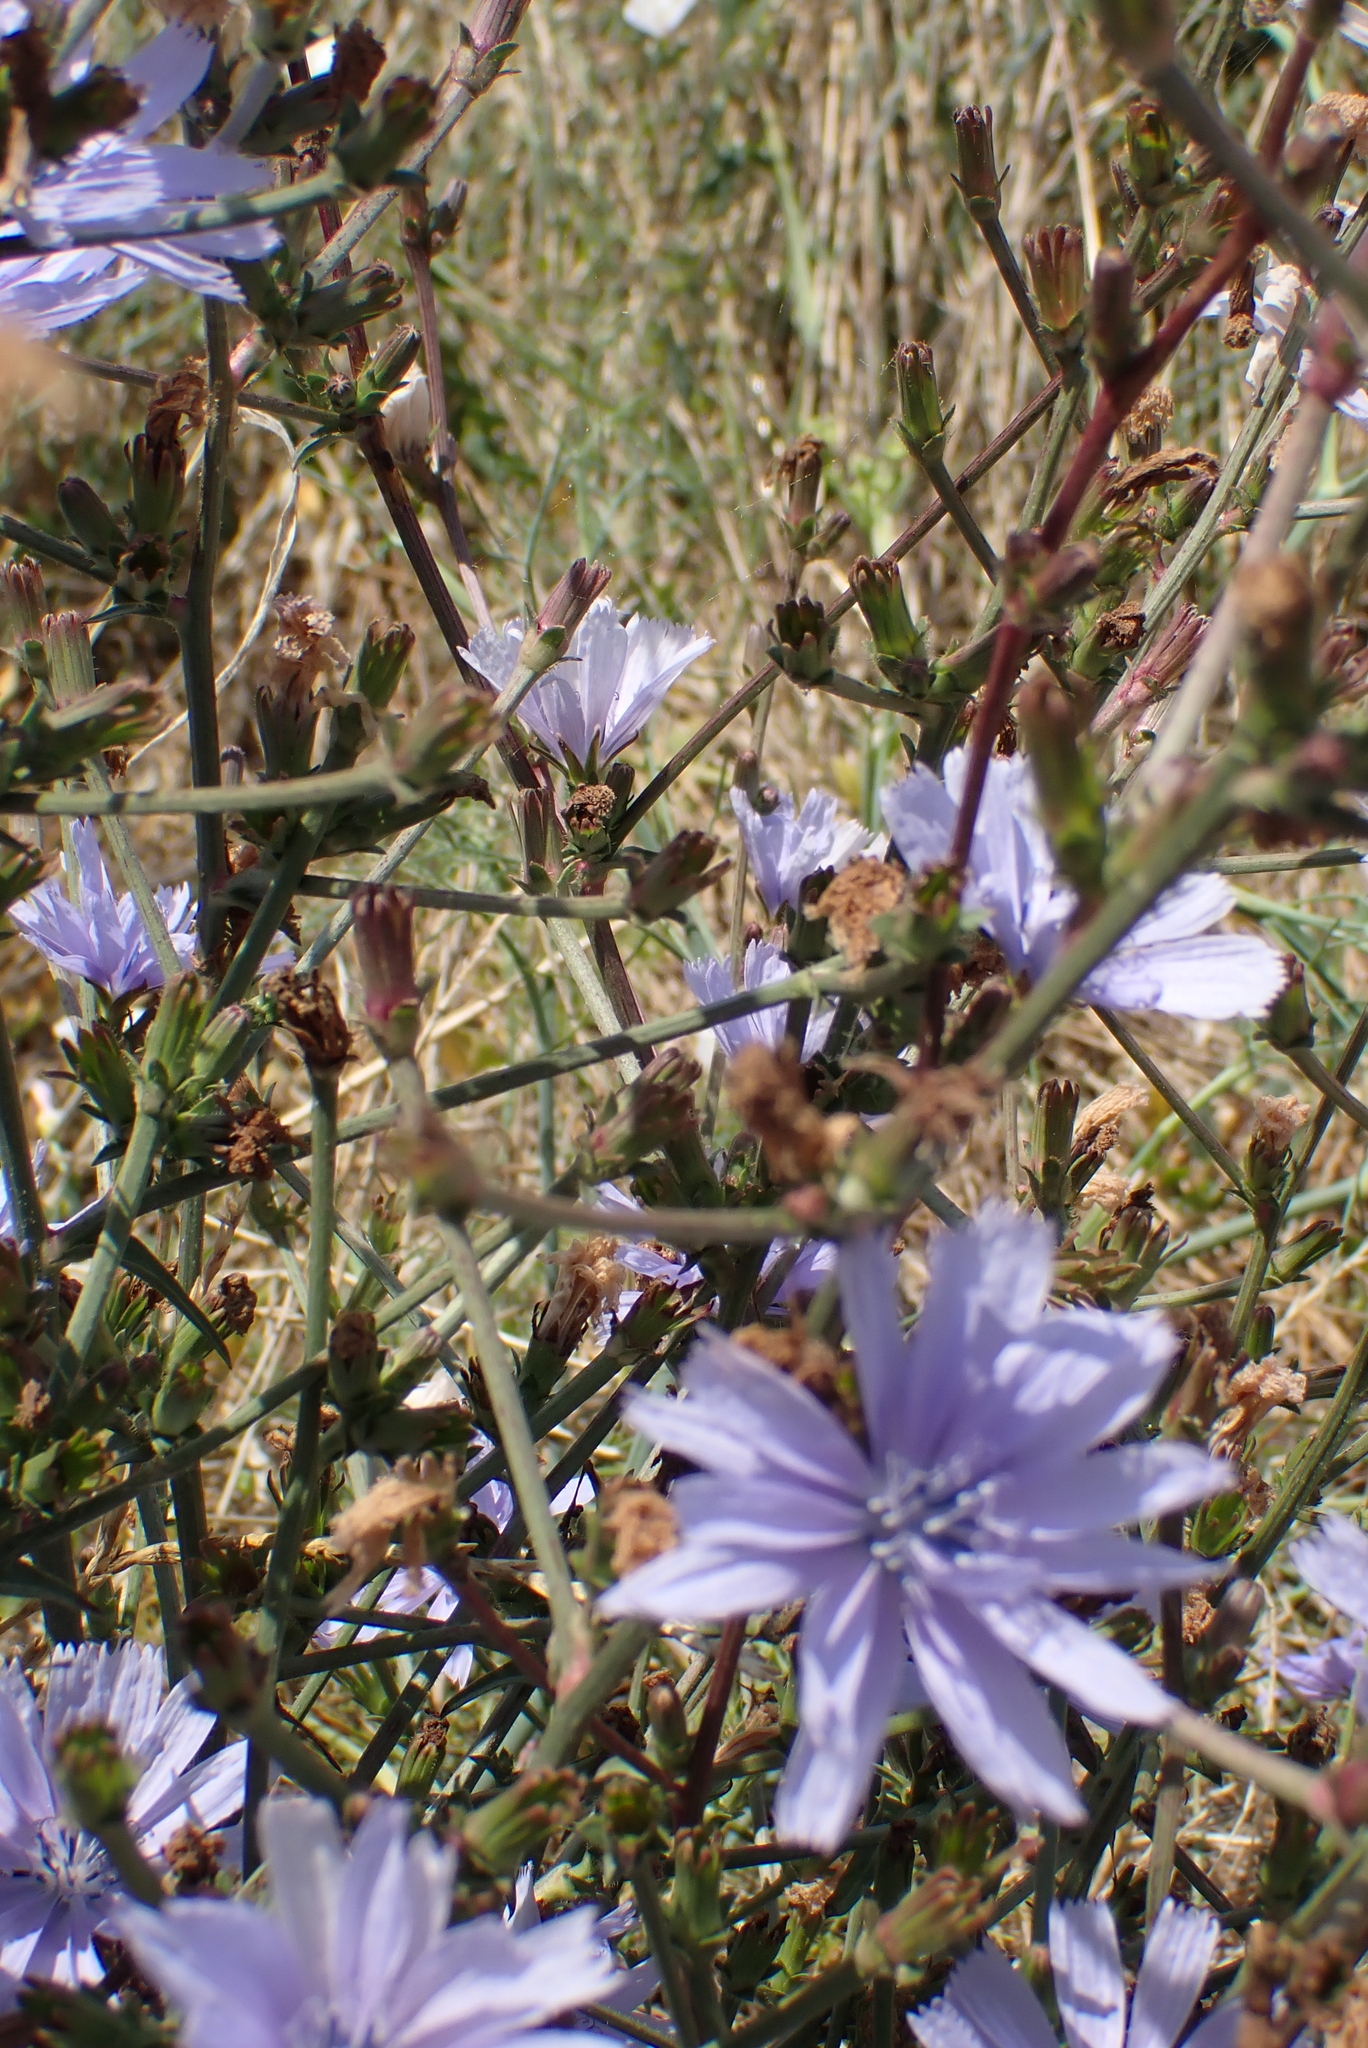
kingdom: Plantae
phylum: Tracheophyta
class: Magnoliopsida
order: Asterales
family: Asteraceae
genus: Cichorium
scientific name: Cichorium intybus
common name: Chicory
